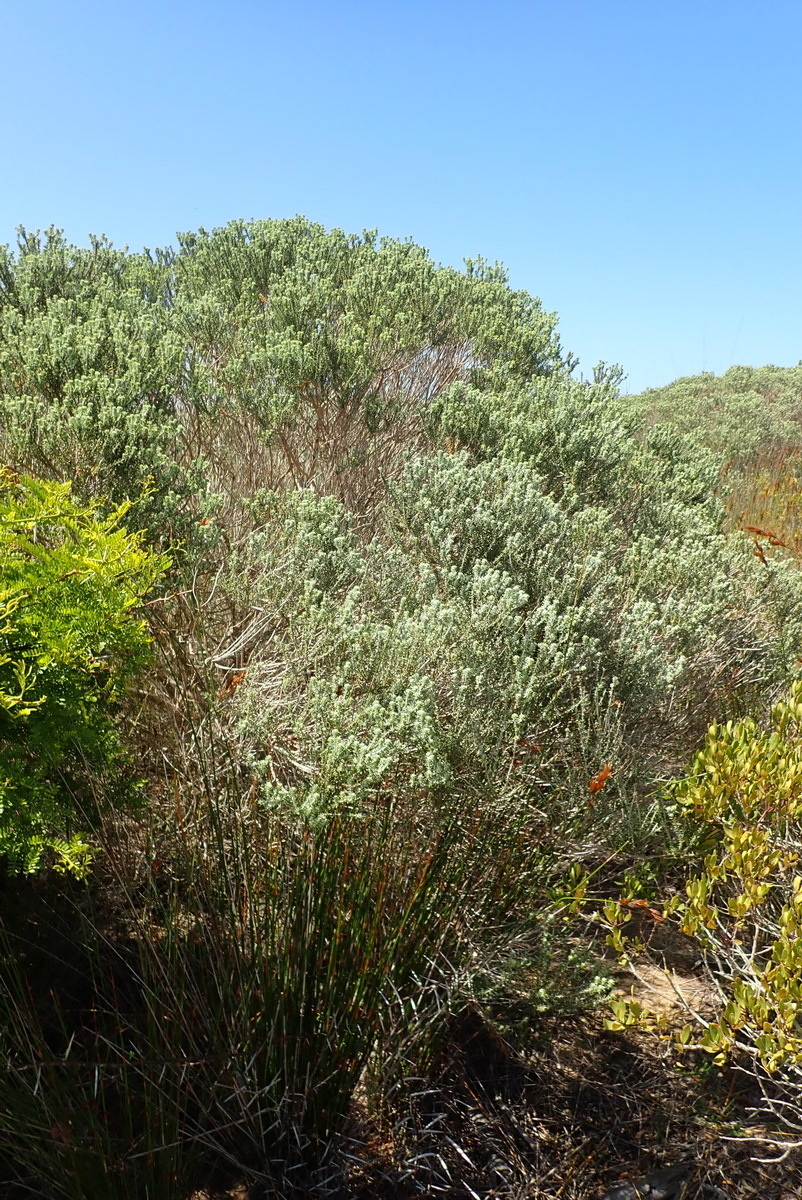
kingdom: Plantae
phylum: Tracheophyta
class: Magnoliopsida
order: Asterales
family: Asteraceae
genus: Metalasia
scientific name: Metalasia muricata
